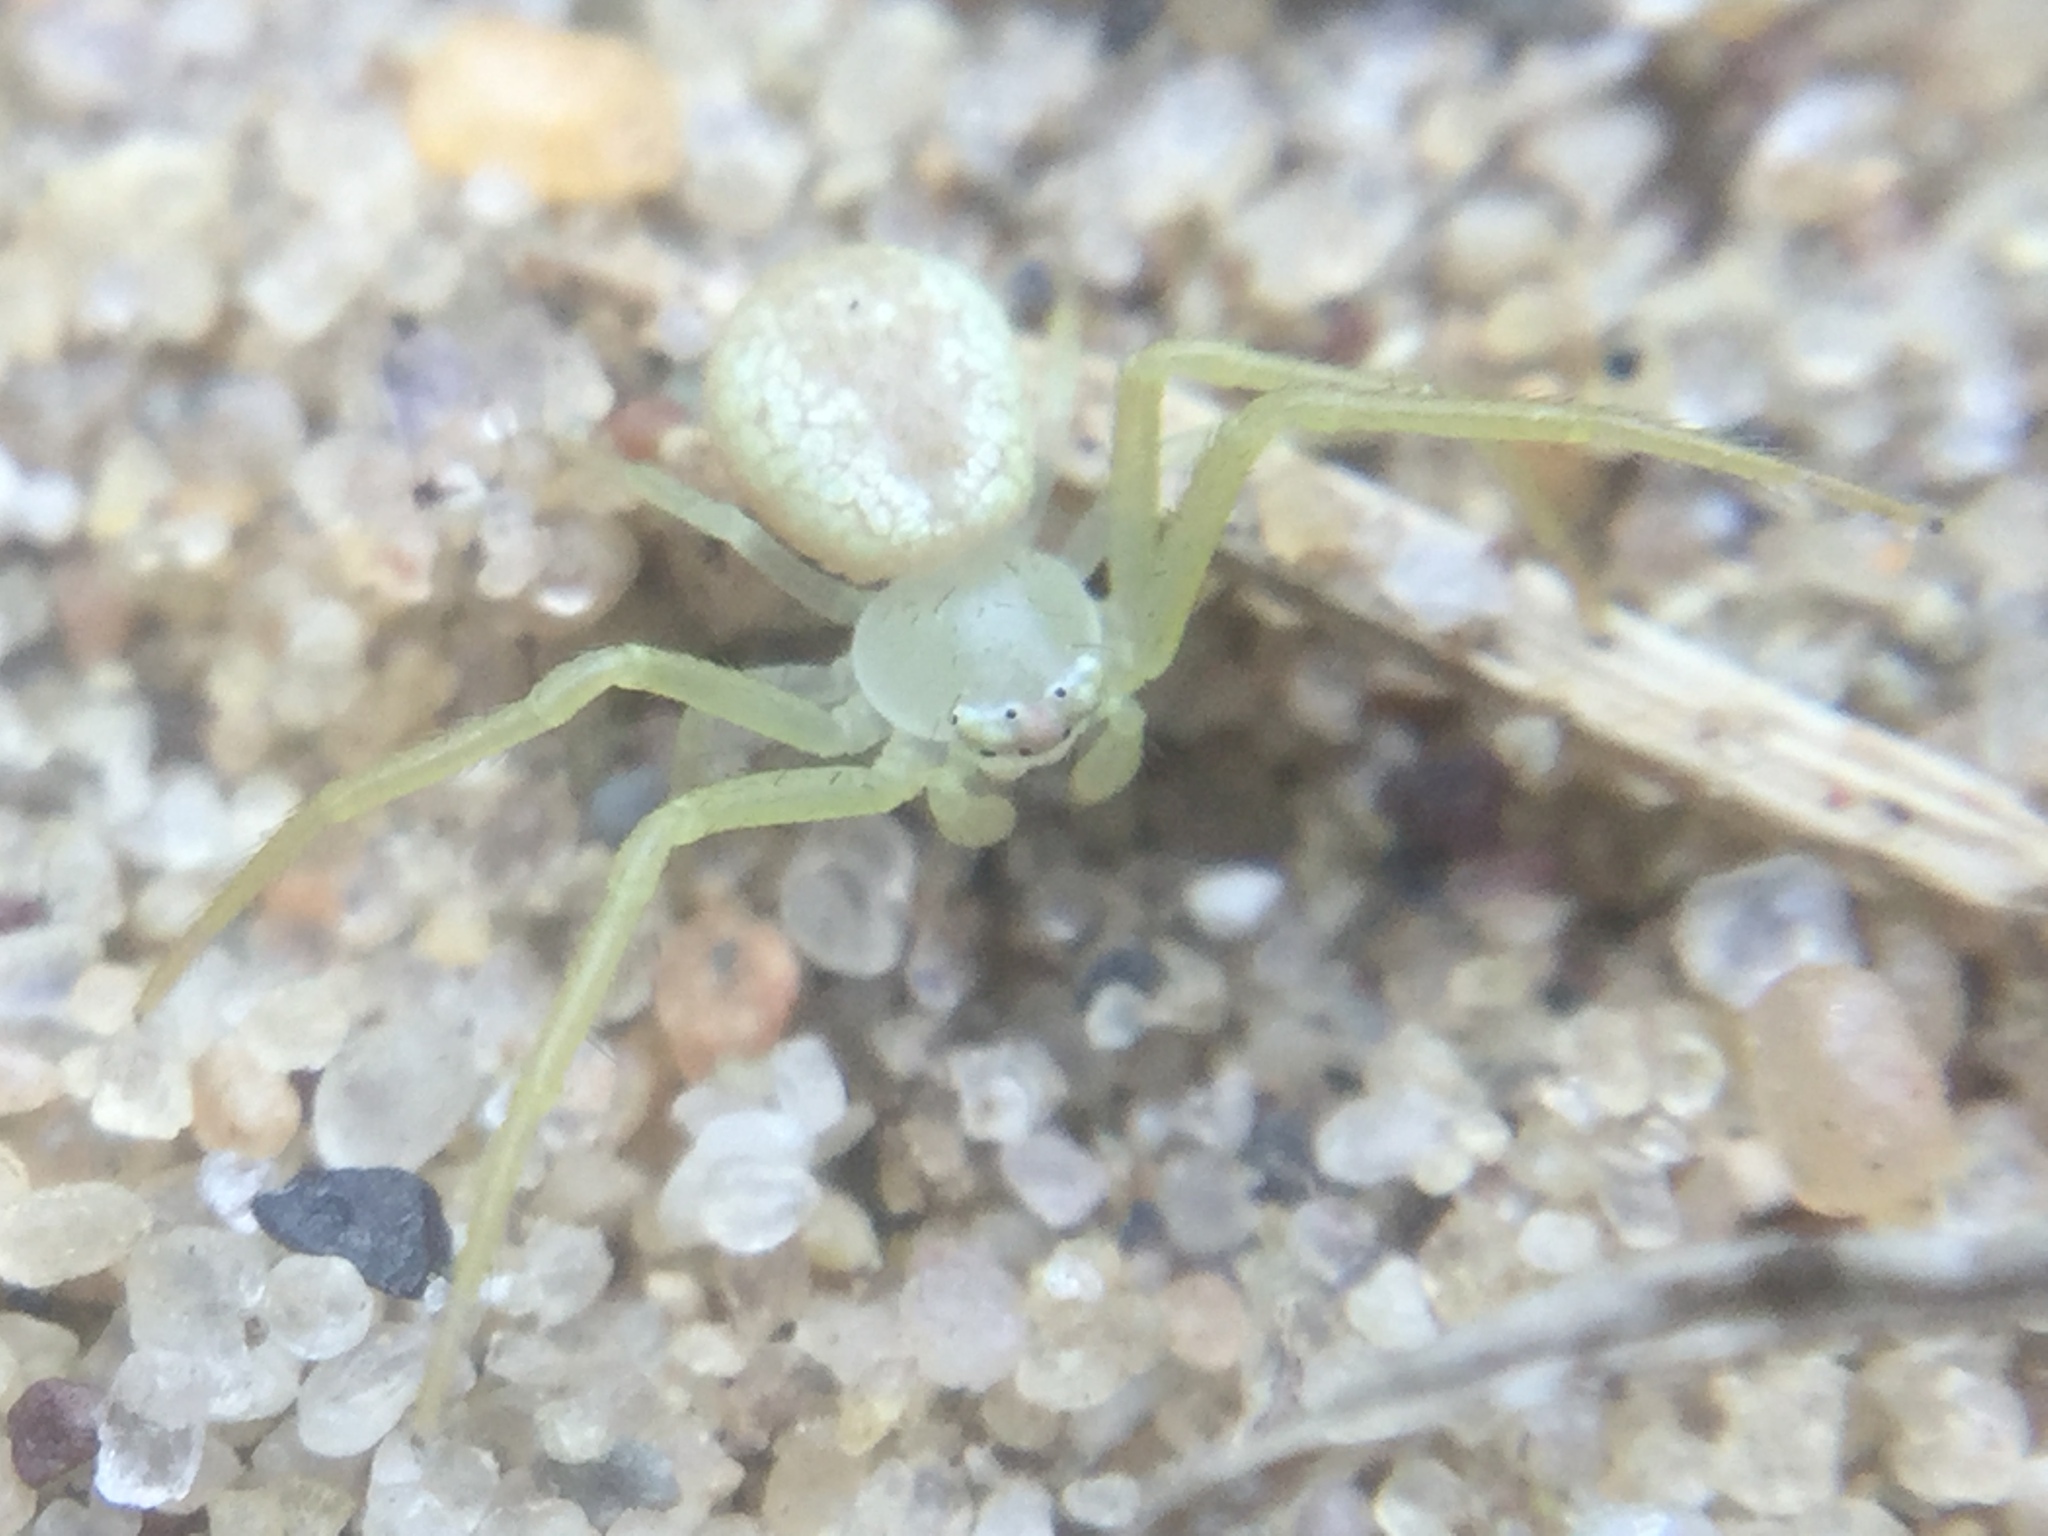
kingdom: Animalia
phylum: Arthropoda
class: Arachnida
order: Araneae
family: Thomisidae
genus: Misumessus
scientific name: Misumessus oblongus
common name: American green crab spider
